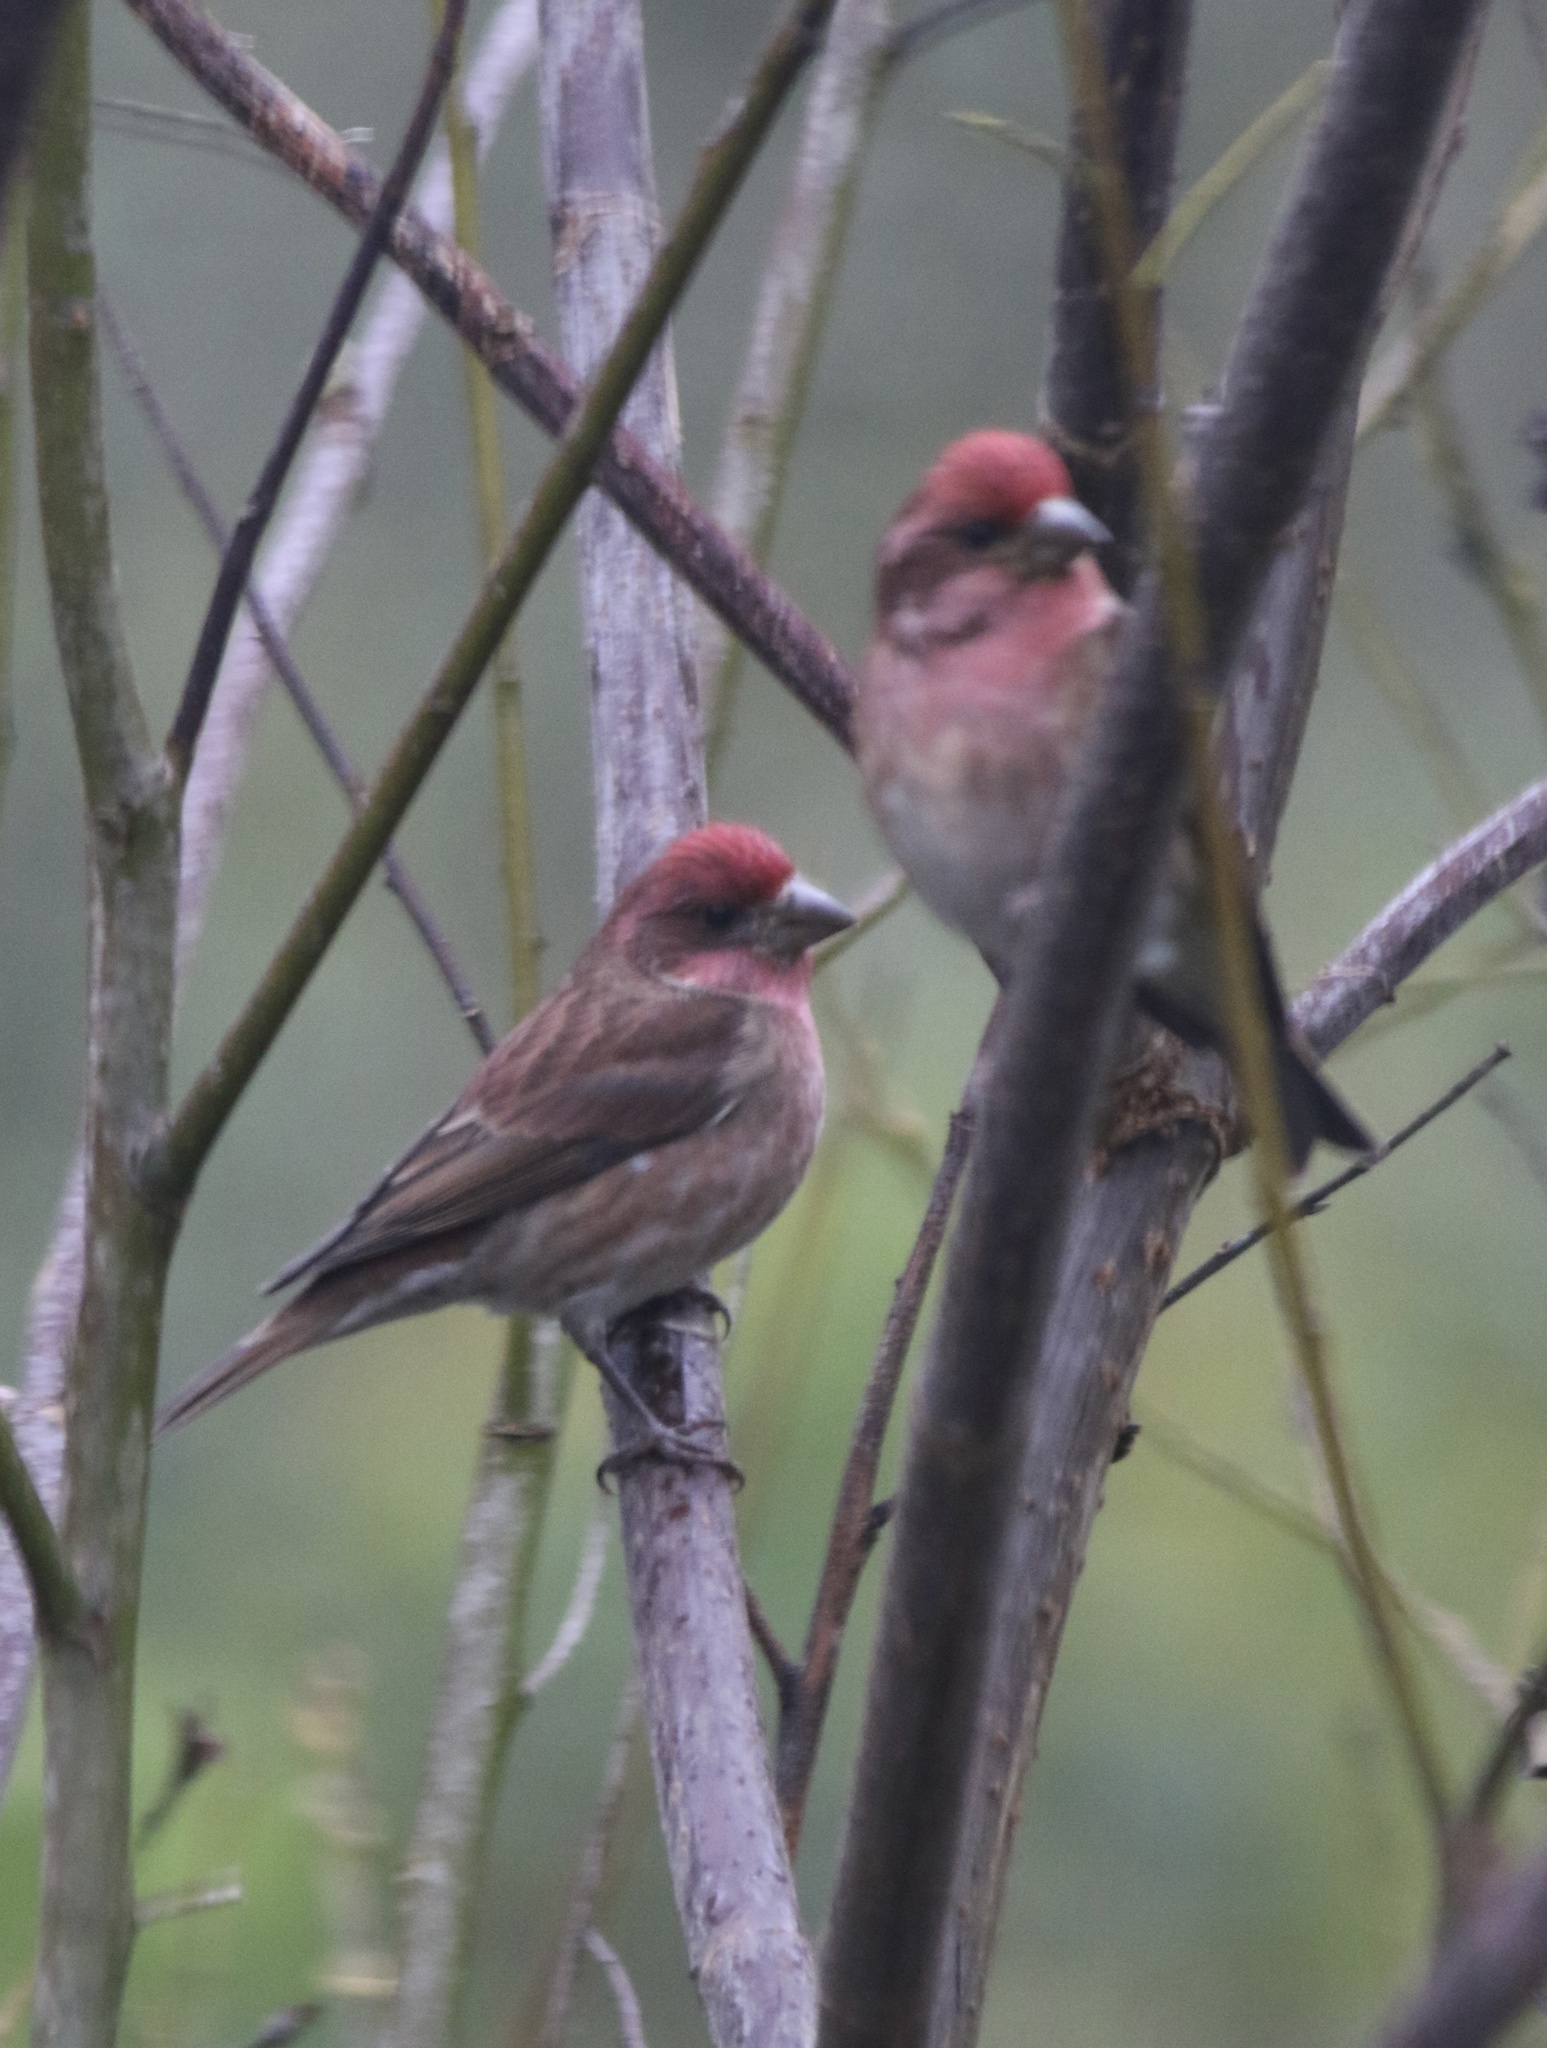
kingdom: Animalia
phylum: Chordata
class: Aves
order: Passeriformes
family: Fringillidae
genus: Haemorhous
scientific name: Haemorhous purpureus
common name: Purple finch
